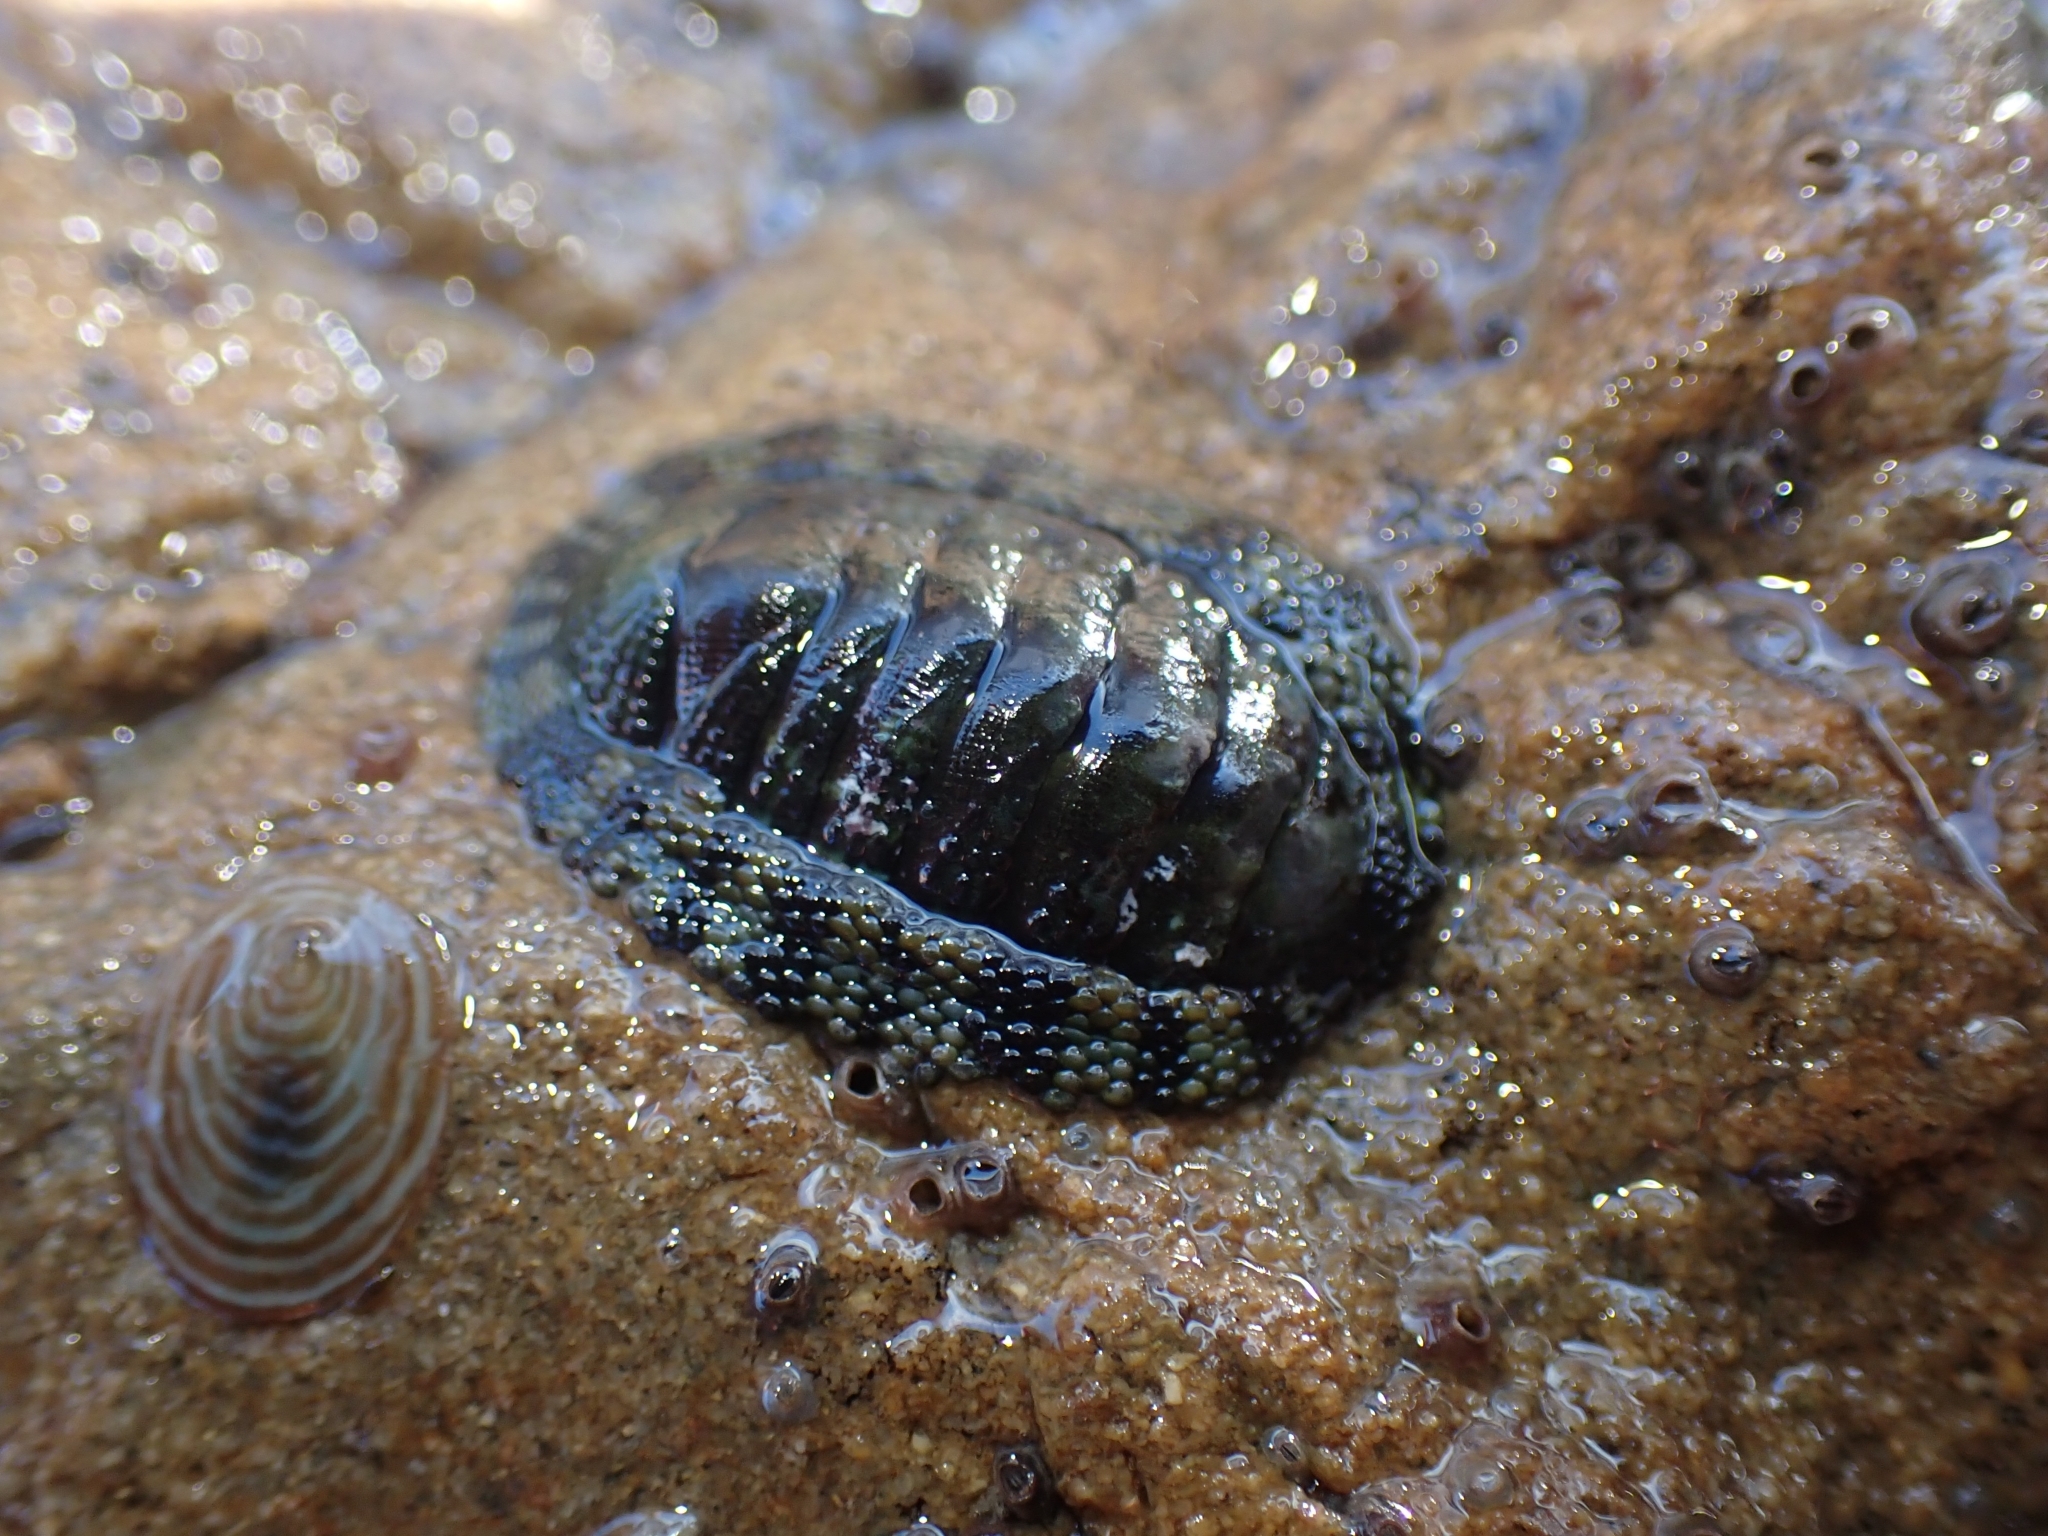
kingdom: Animalia
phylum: Mollusca
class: Polyplacophora
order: Chitonida
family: Chitonidae
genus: Sypharochiton
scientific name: Sypharochiton pelliserpentis
